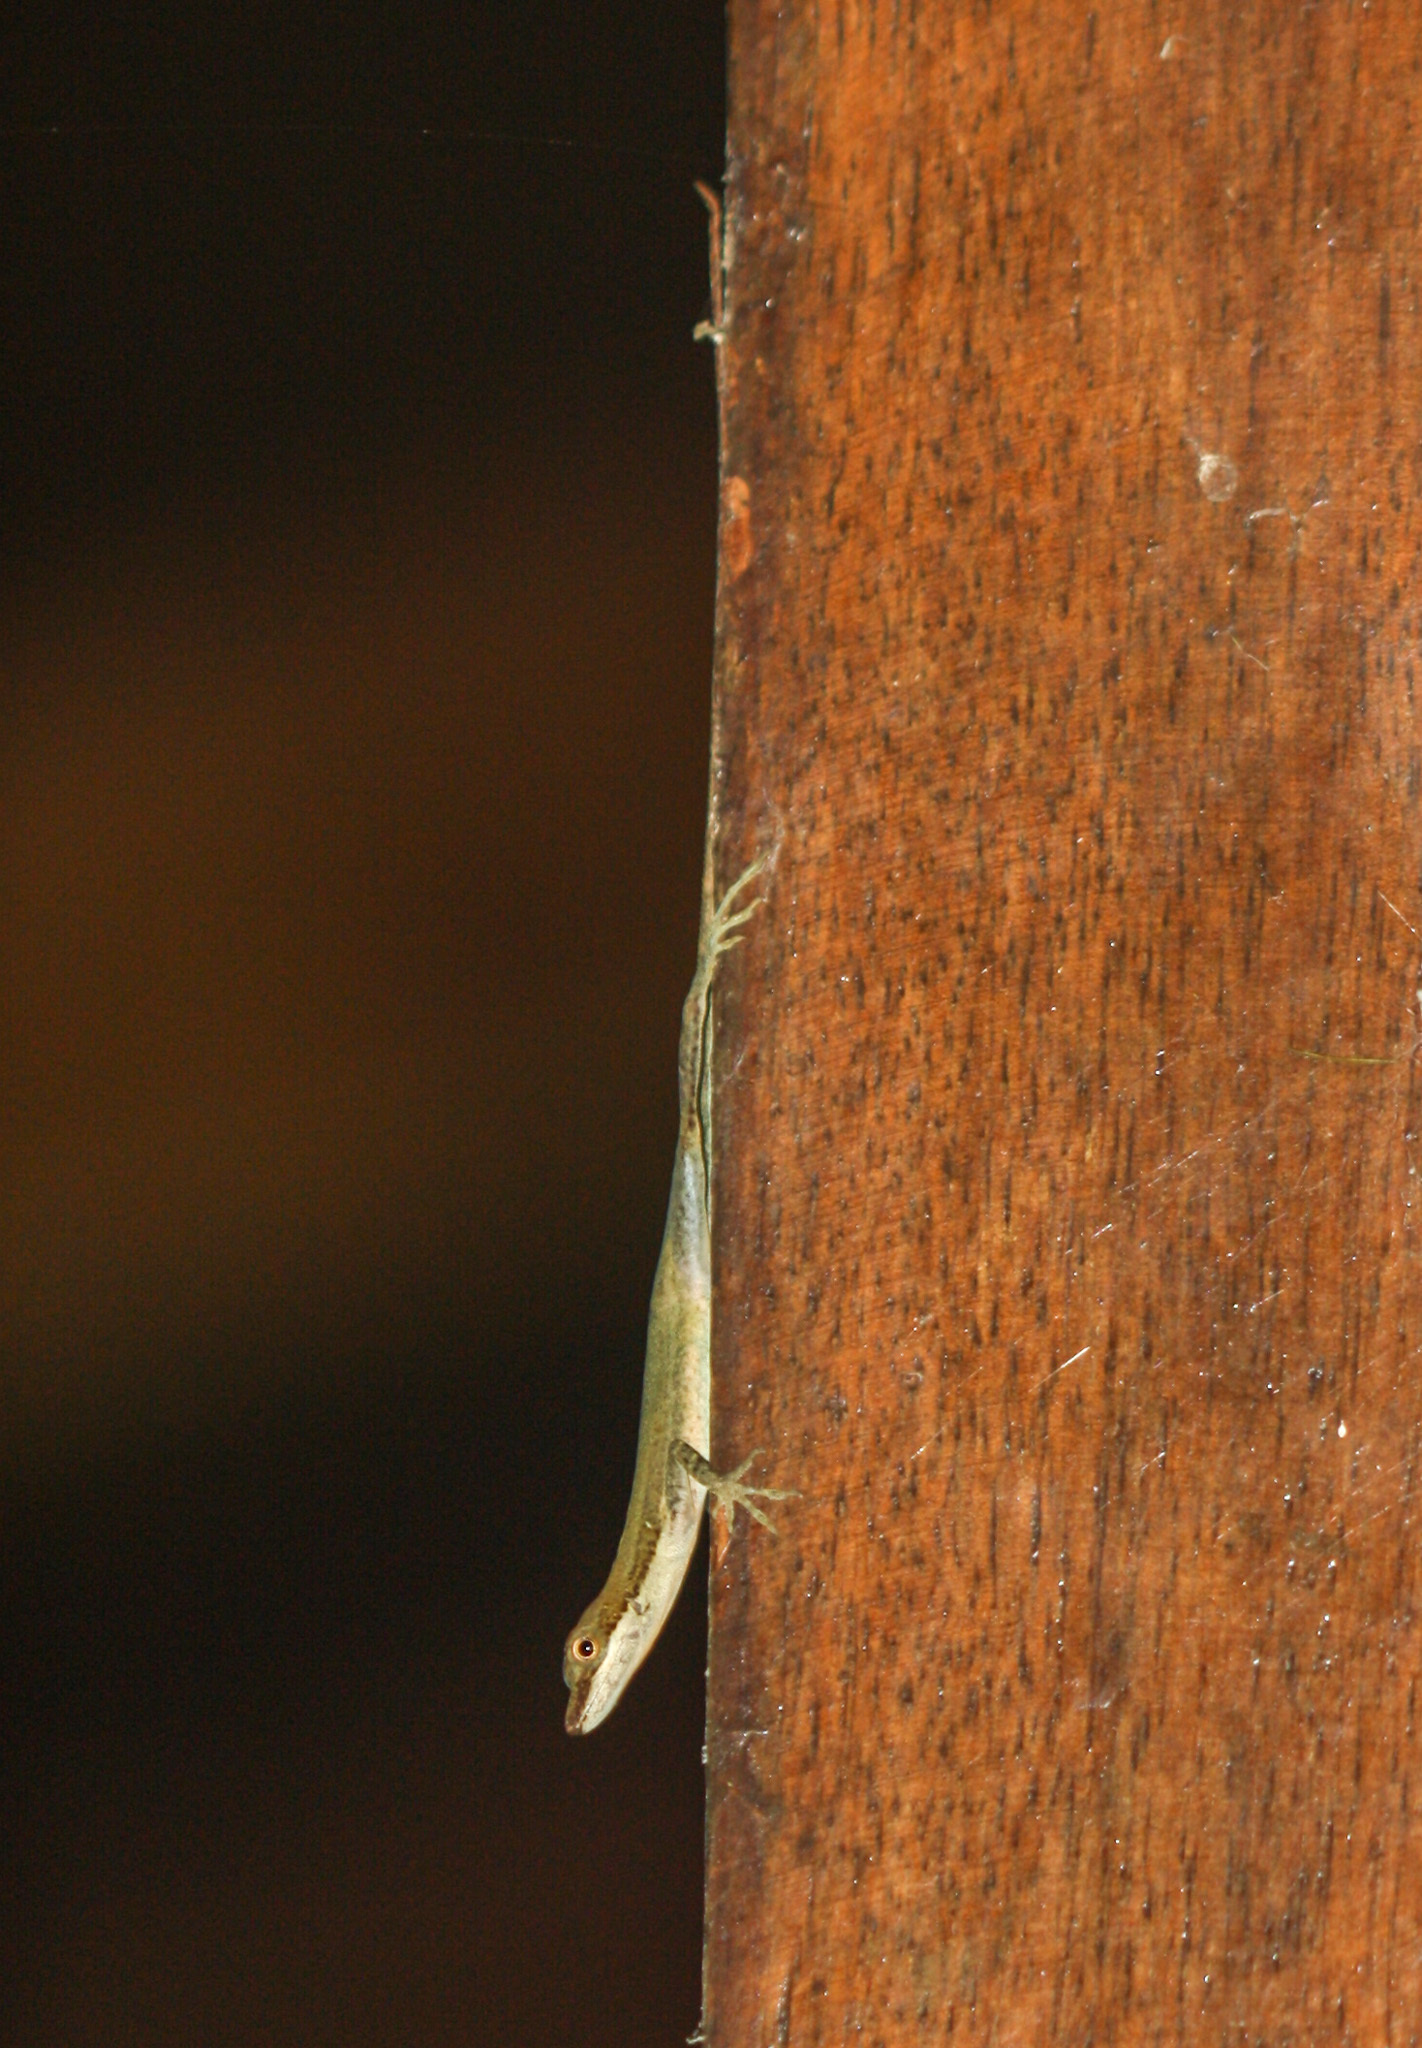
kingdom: Animalia
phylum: Chordata
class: Squamata
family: Dactyloidae
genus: Anolis
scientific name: Anolis limifrons
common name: Border anole
